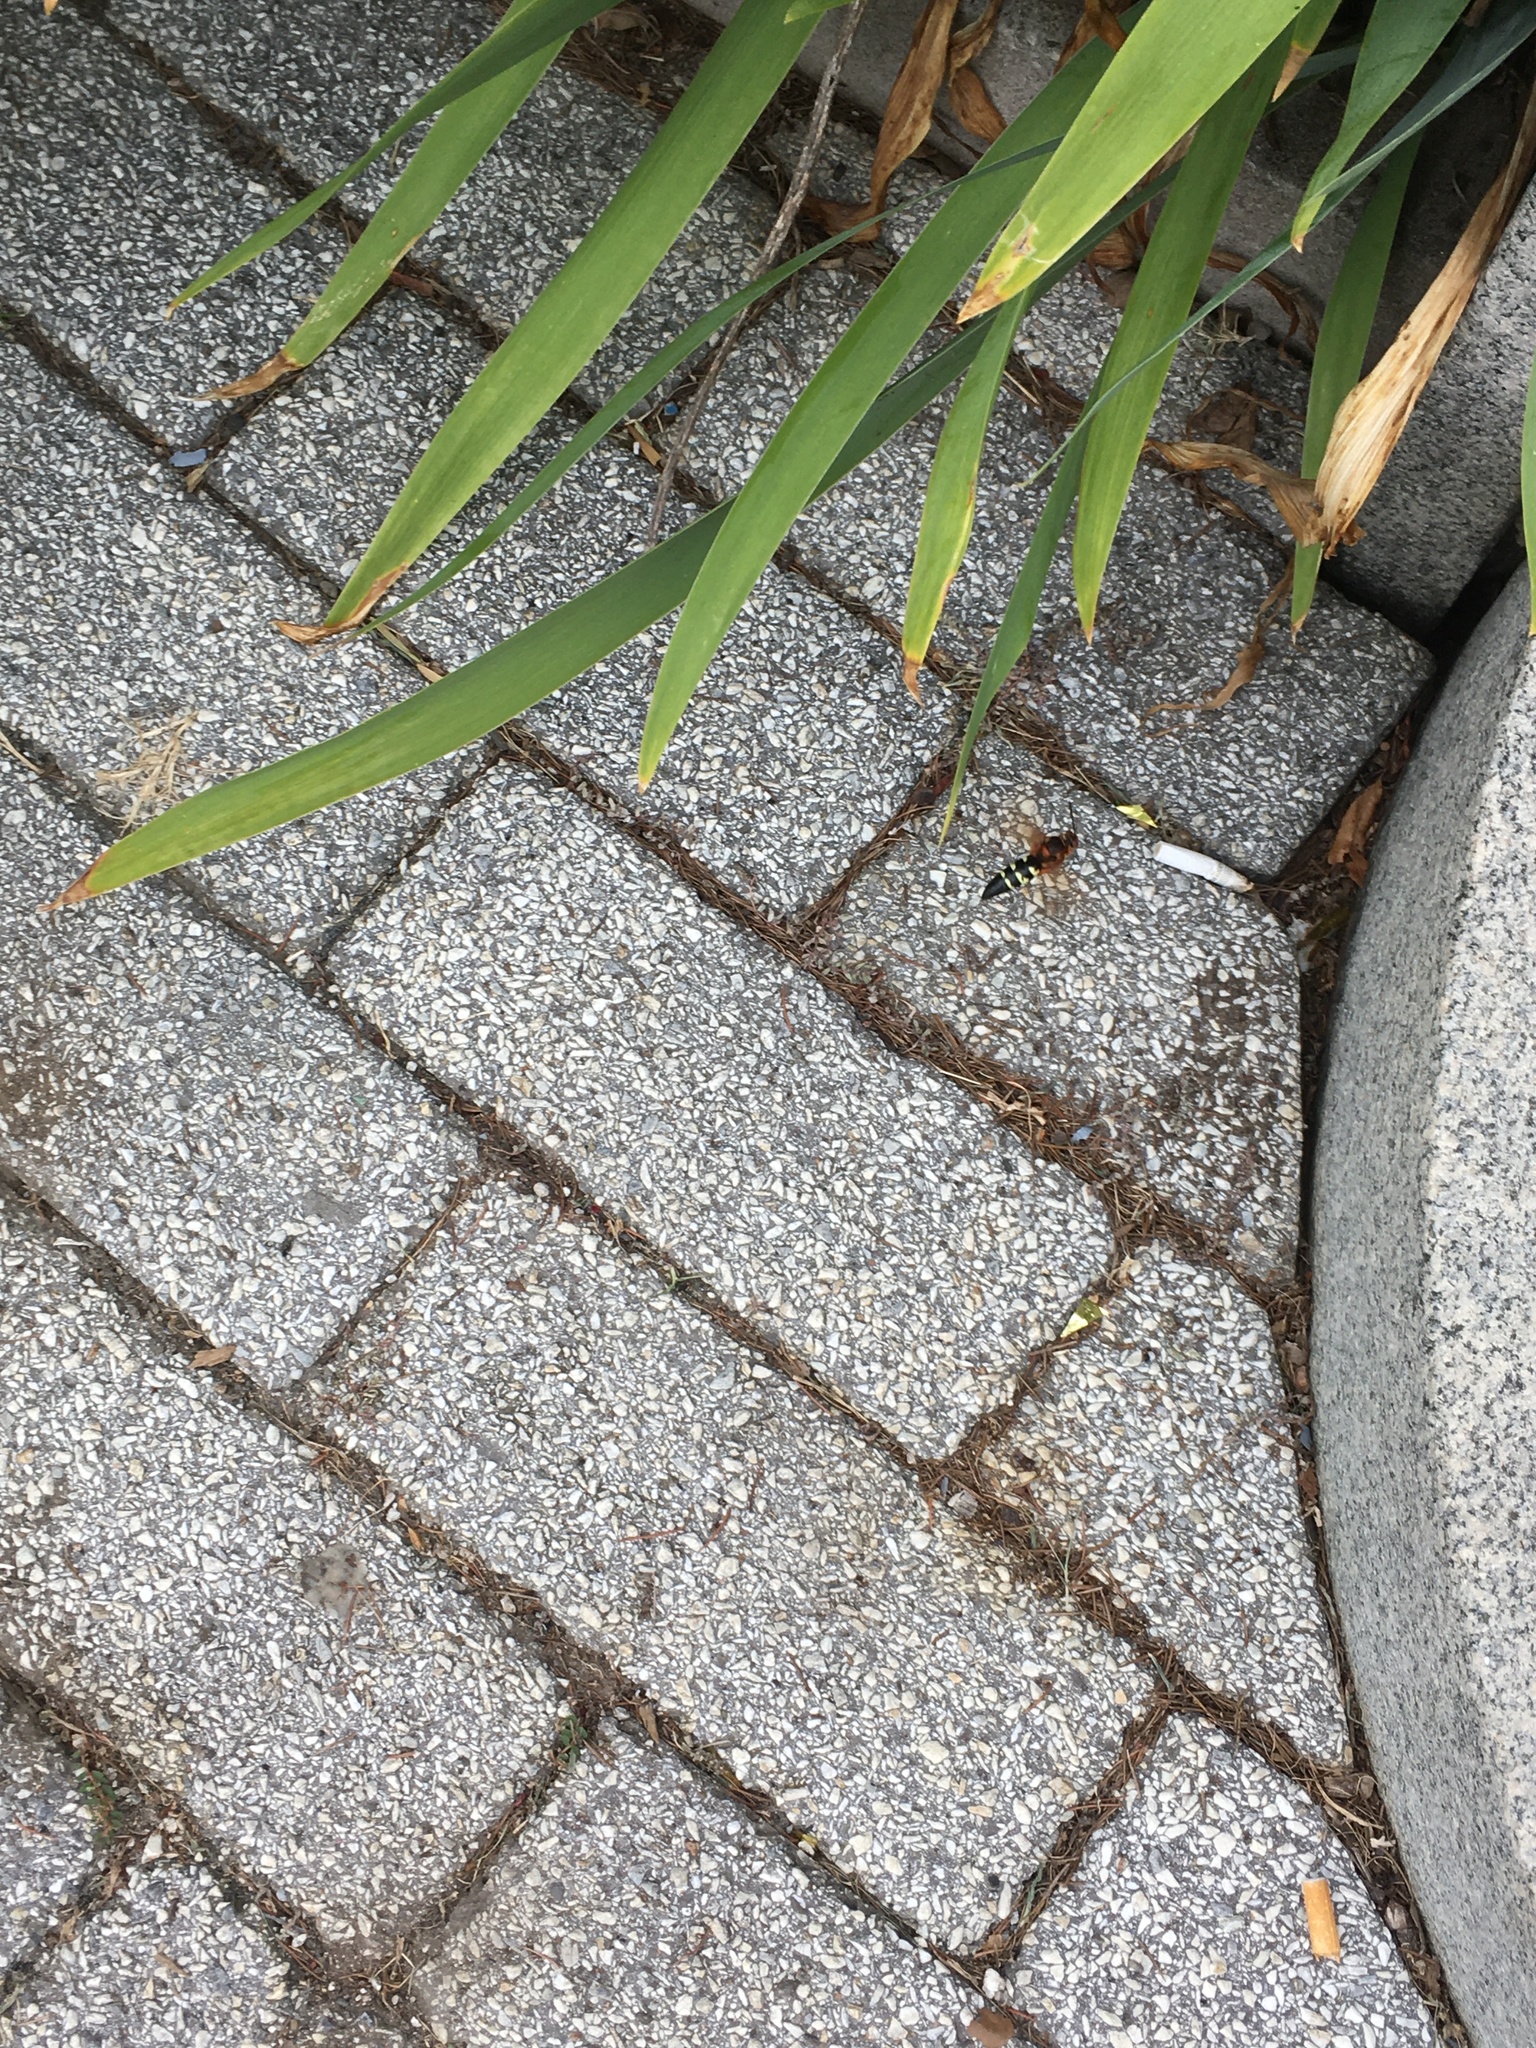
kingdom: Animalia
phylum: Arthropoda
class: Insecta
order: Hymenoptera
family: Crabronidae
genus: Sphecius
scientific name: Sphecius speciosus
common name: Cicada killer
